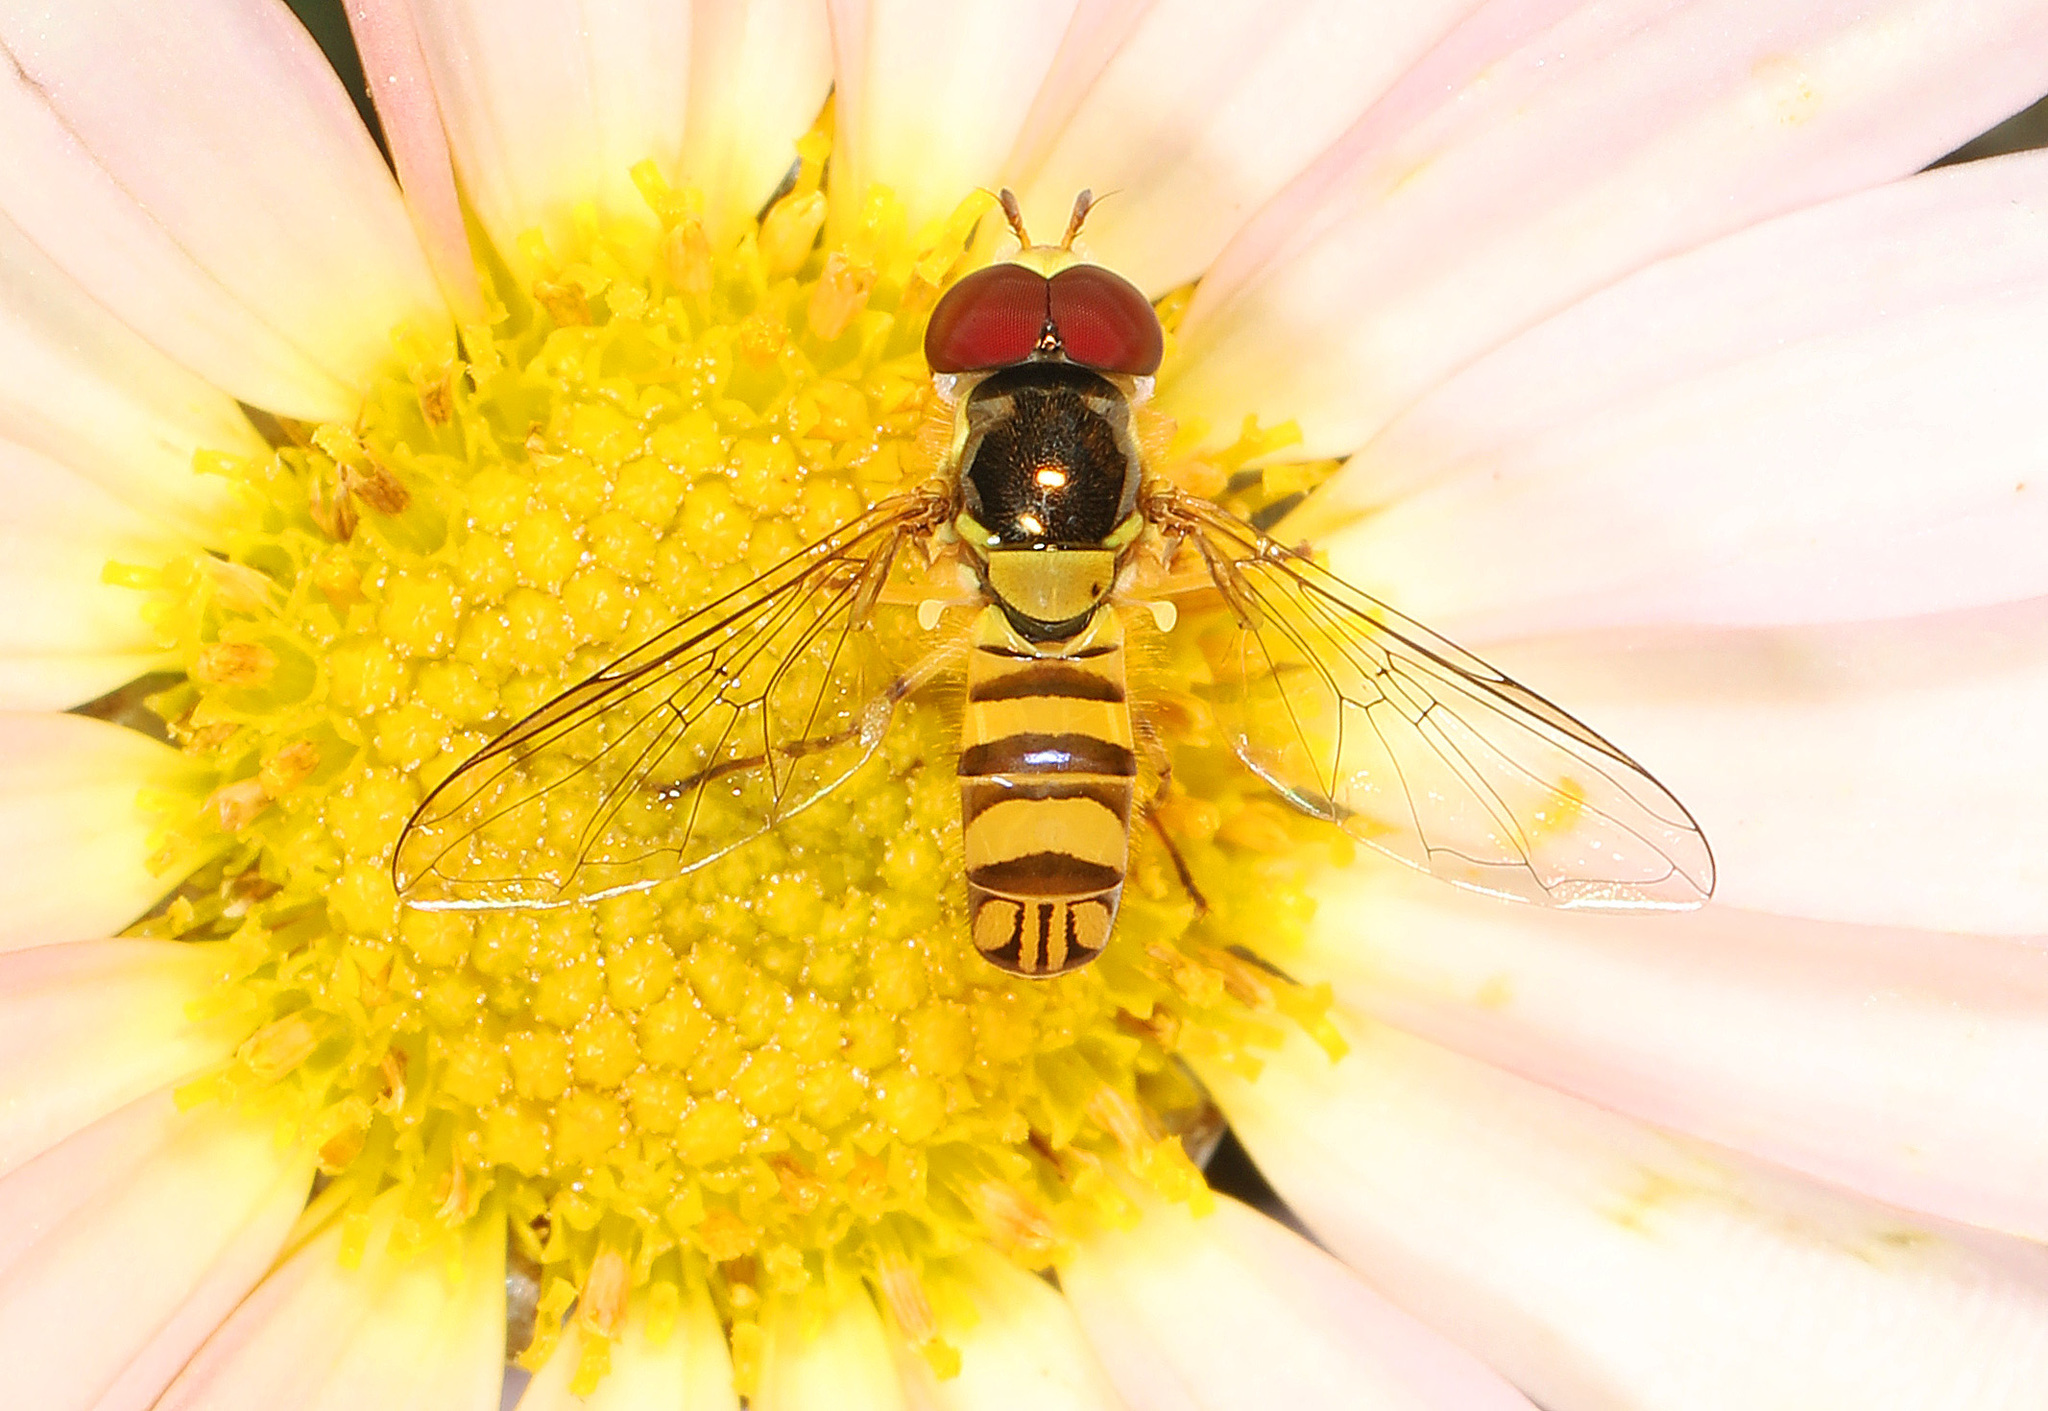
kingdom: Animalia
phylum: Arthropoda
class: Insecta
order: Diptera
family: Syrphidae
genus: Allograpta
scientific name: Allograpta obliqua
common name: Common oblique syrphid
